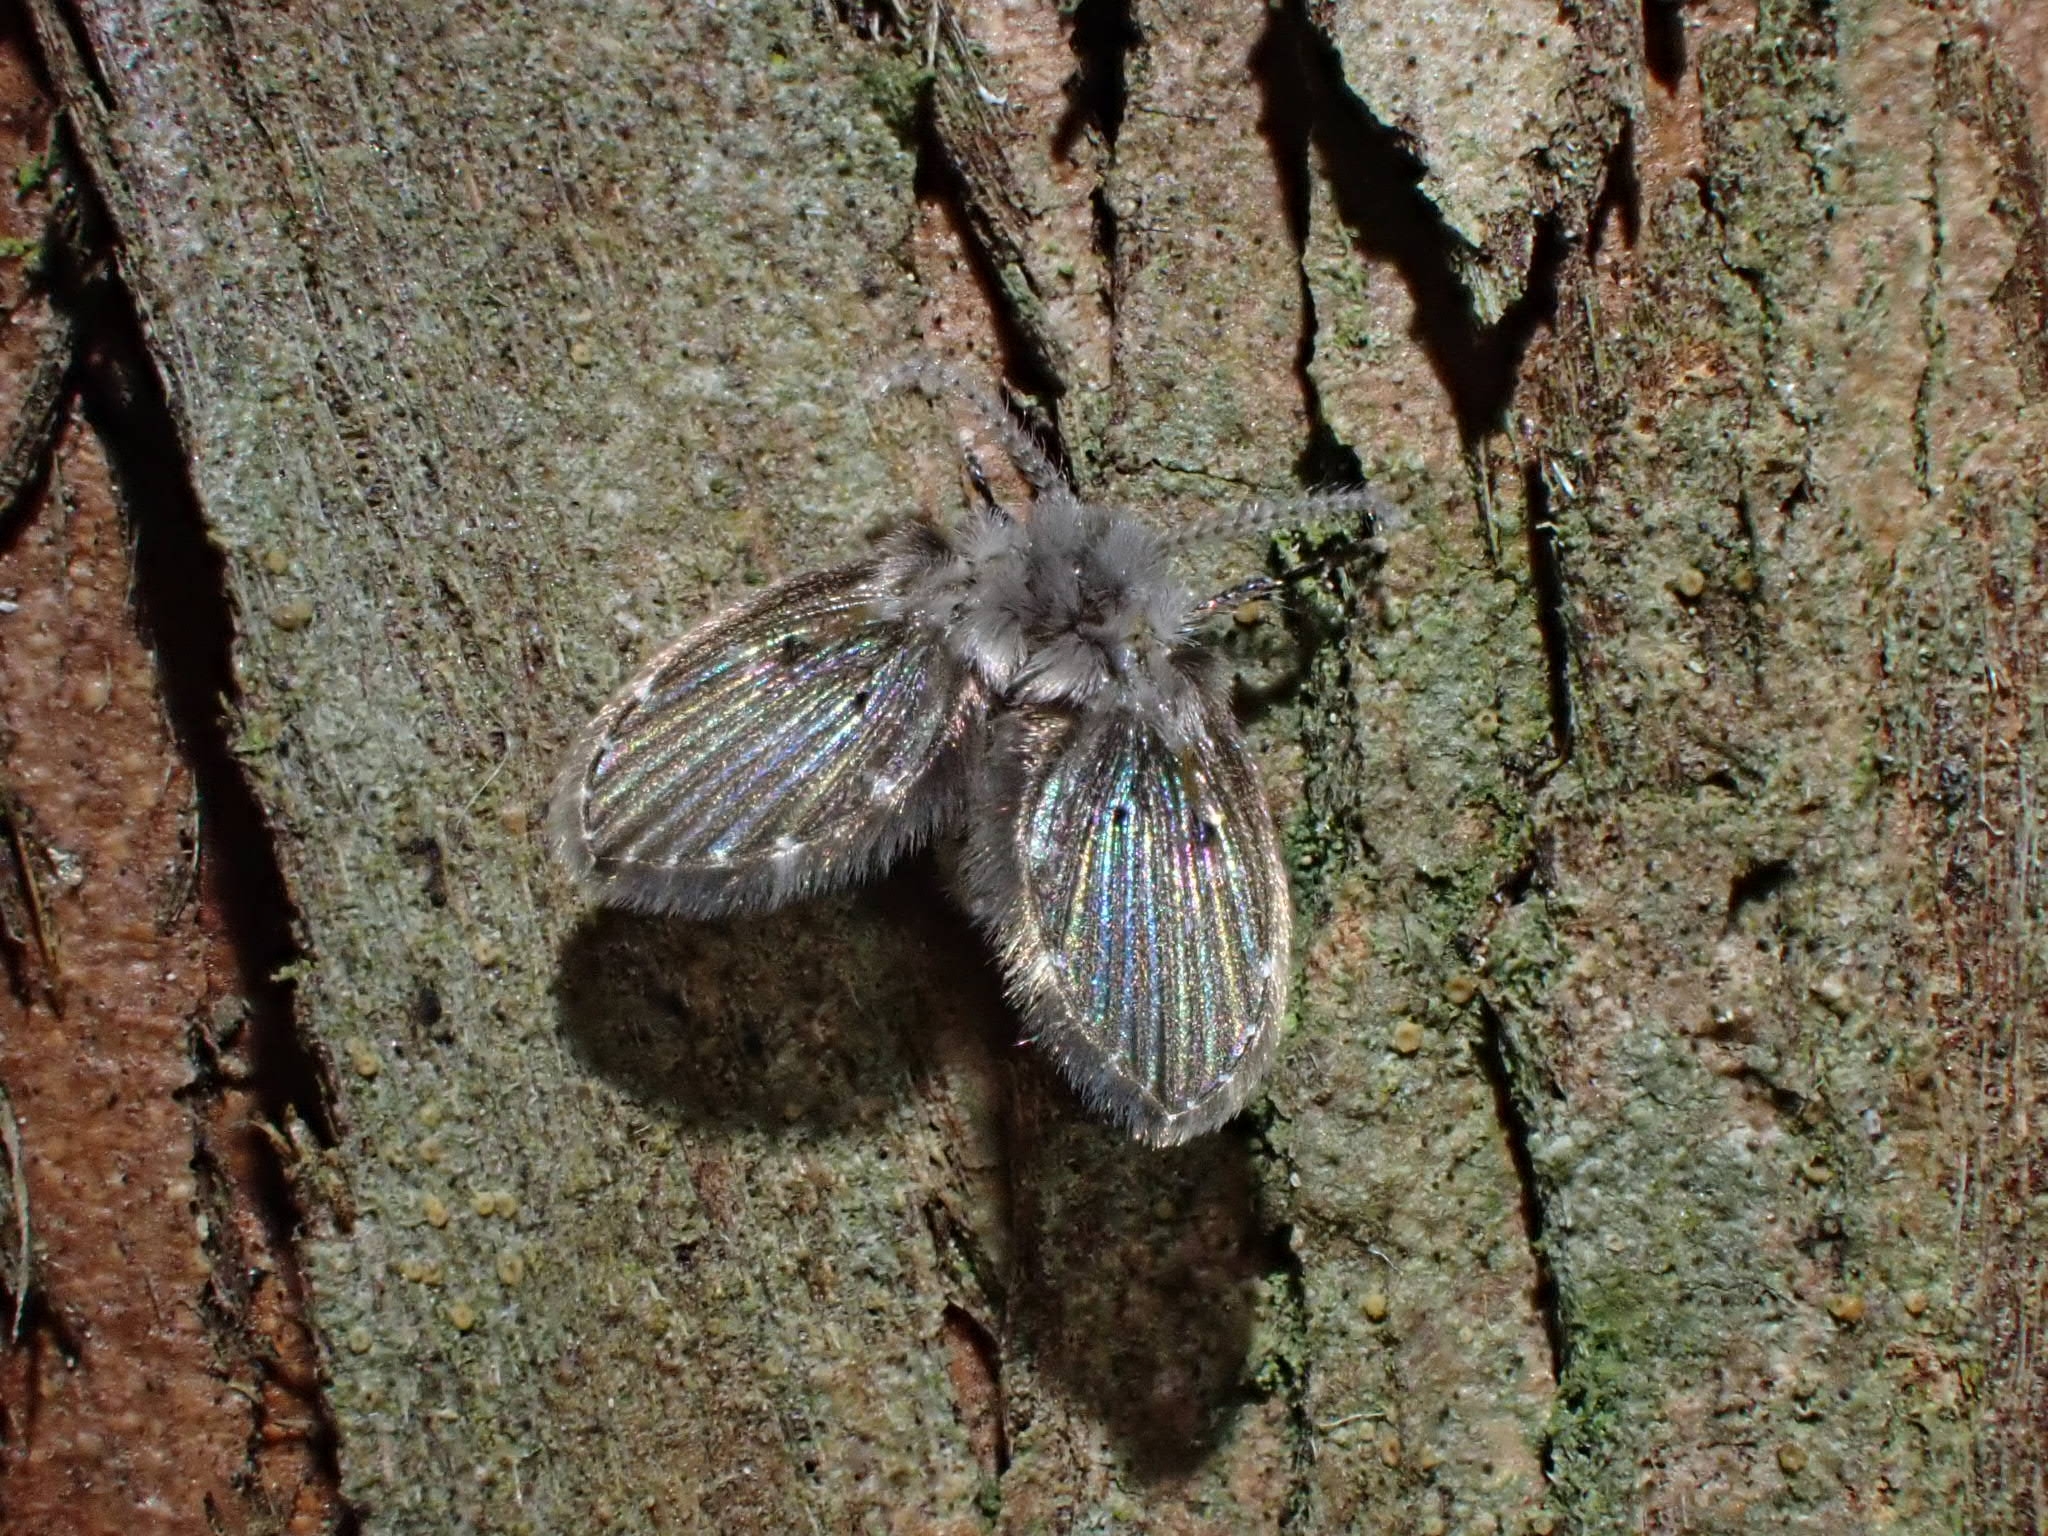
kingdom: Animalia
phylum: Arthropoda
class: Insecta
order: Diptera
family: Psychodidae
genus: Clogmia
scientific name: Clogmia albipunctatus
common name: White-spotted moth fly
